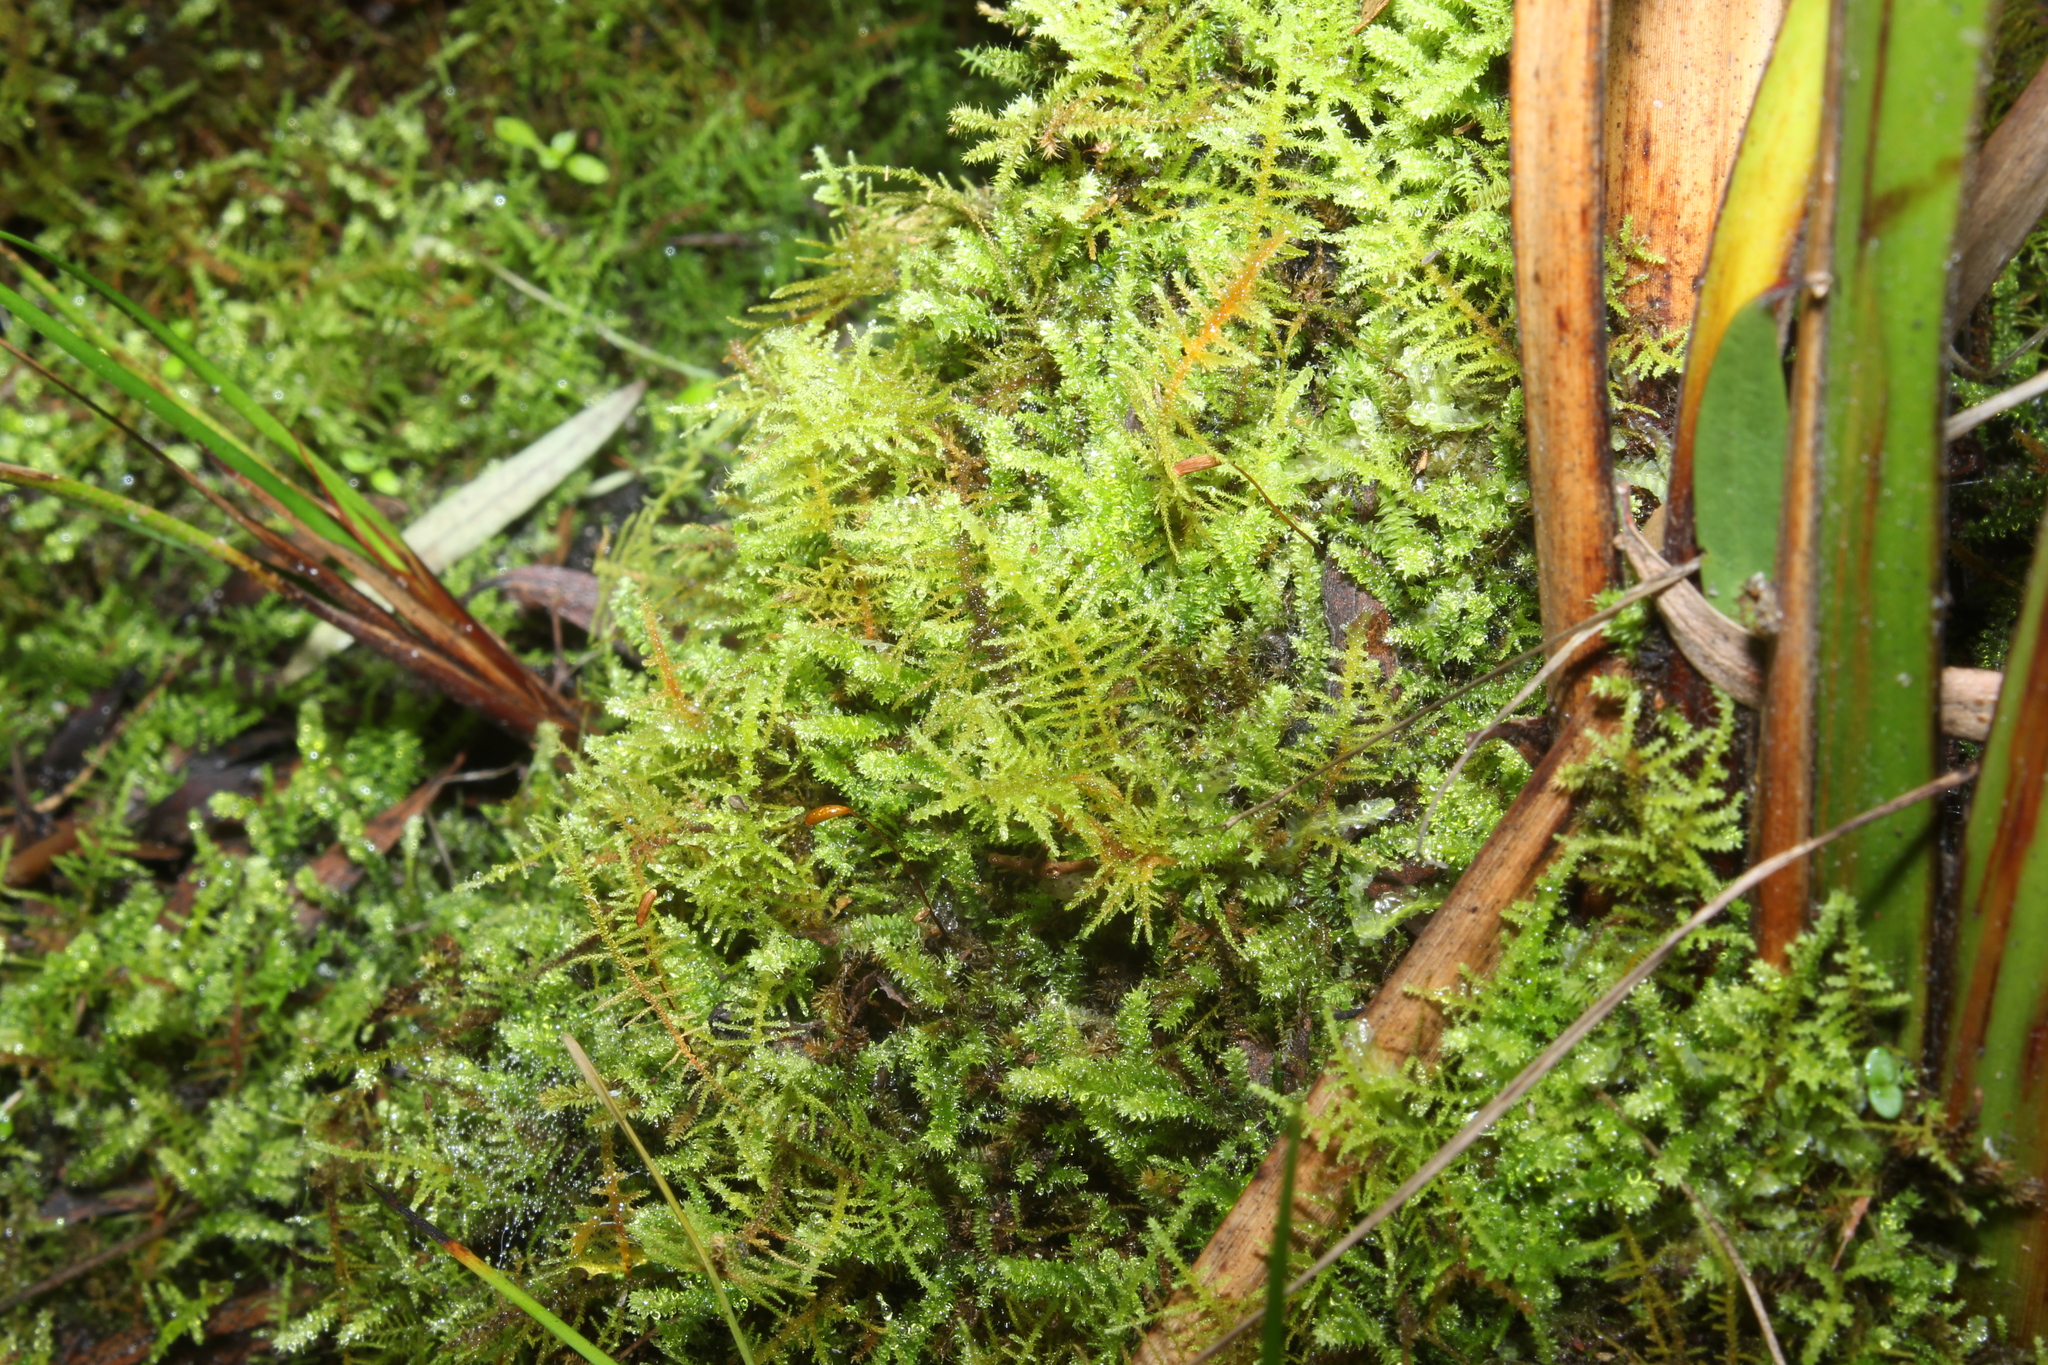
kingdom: Plantae
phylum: Bryophyta
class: Bryopsida
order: Hypnales
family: Thuidiaceae
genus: Thuidiopsis
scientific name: Thuidiopsis sparsa
